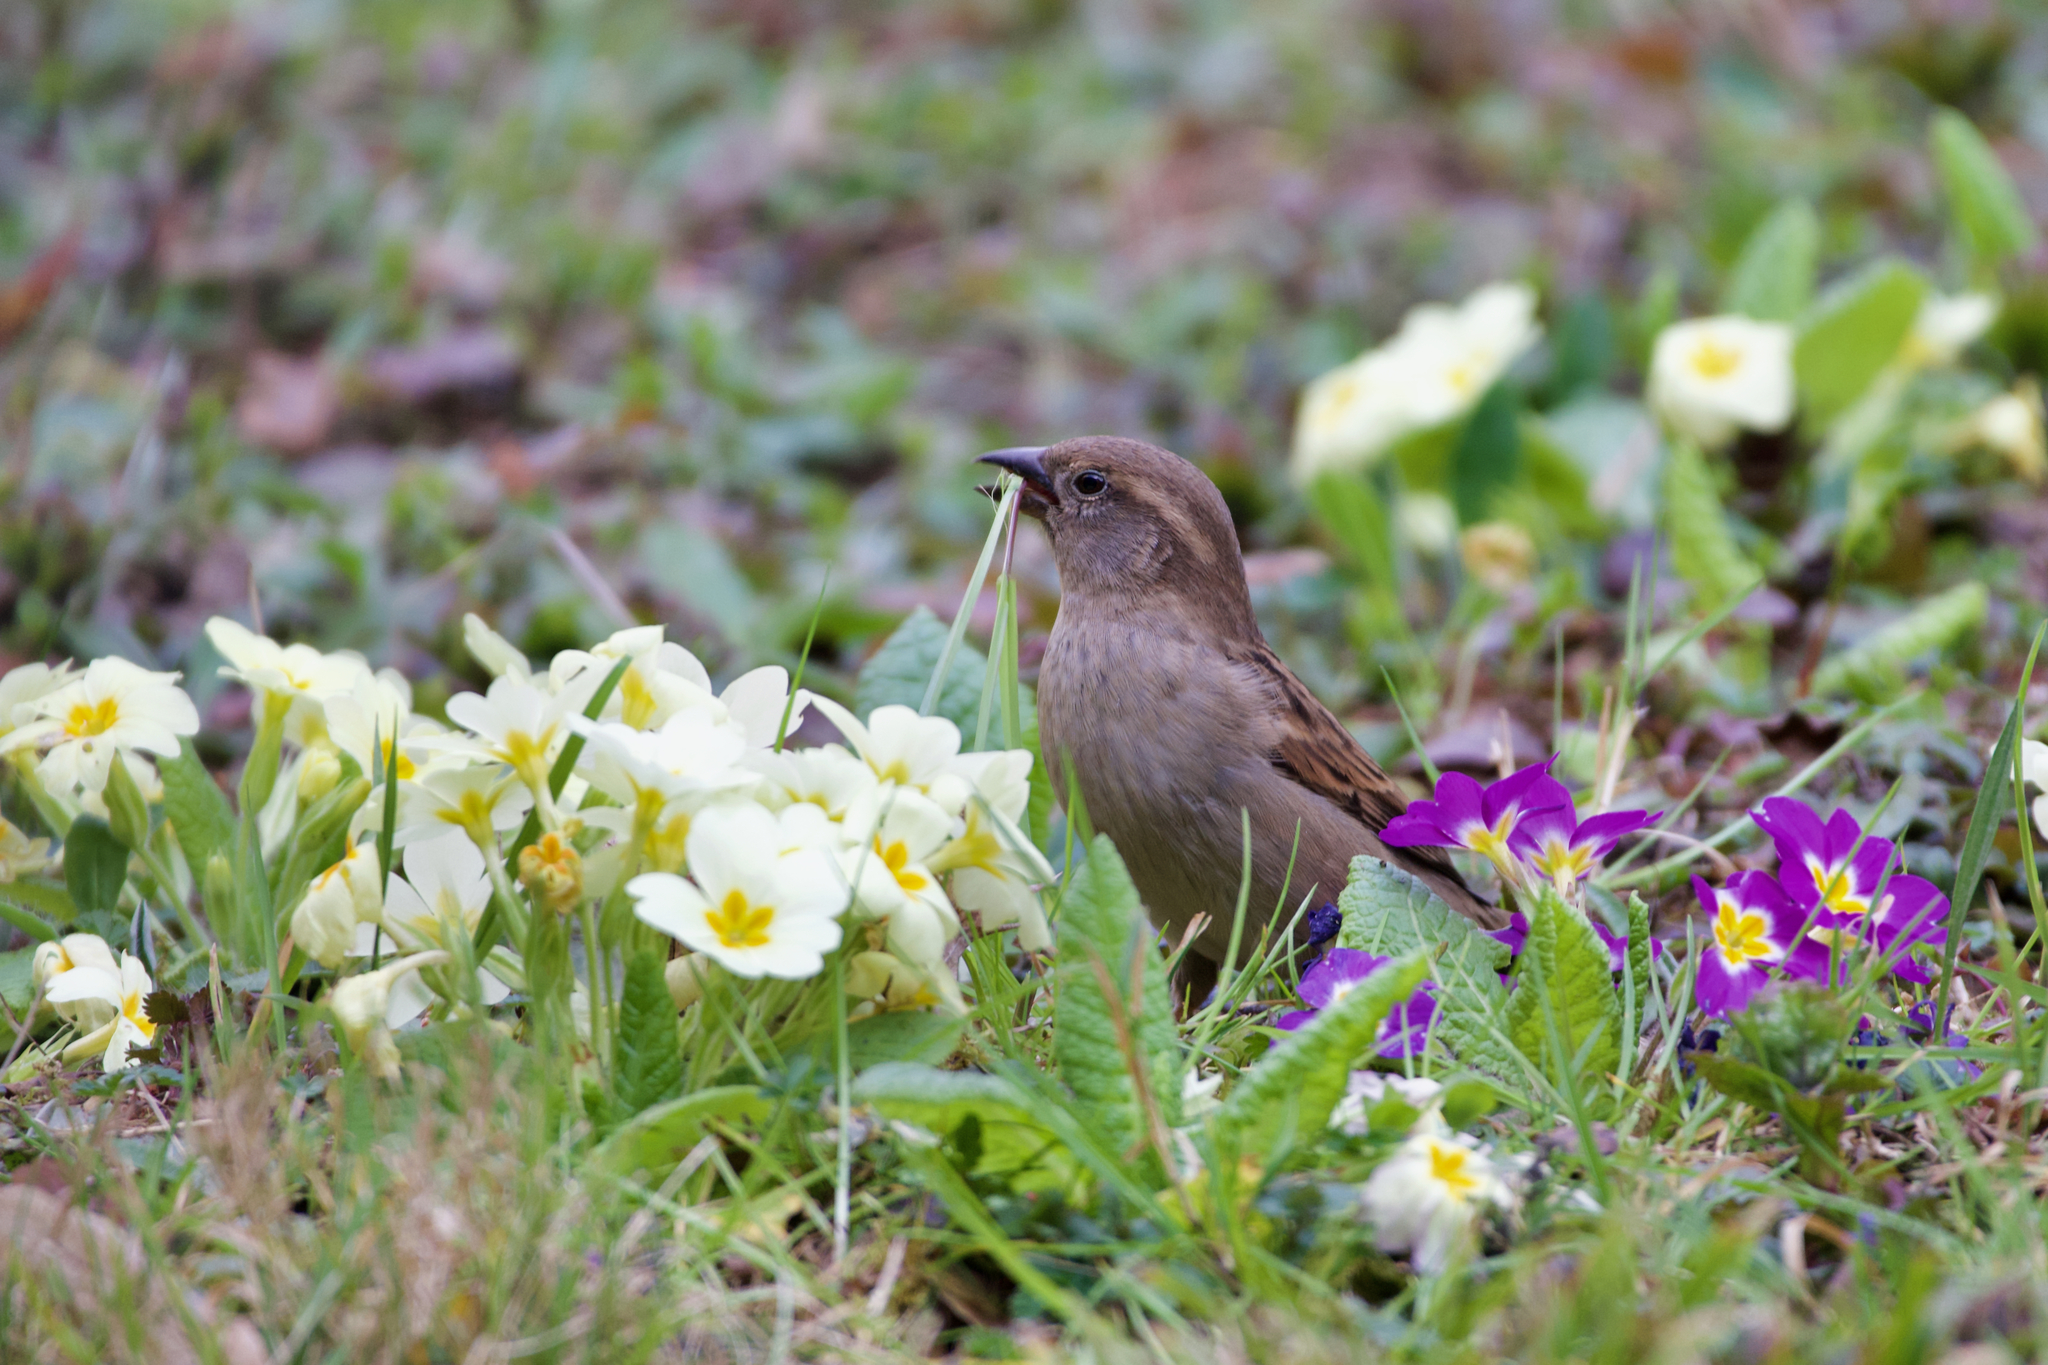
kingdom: Animalia
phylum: Chordata
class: Aves
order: Passeriformes
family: Passeridae
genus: Passer
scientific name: Passer domesticus
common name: House sparrow
